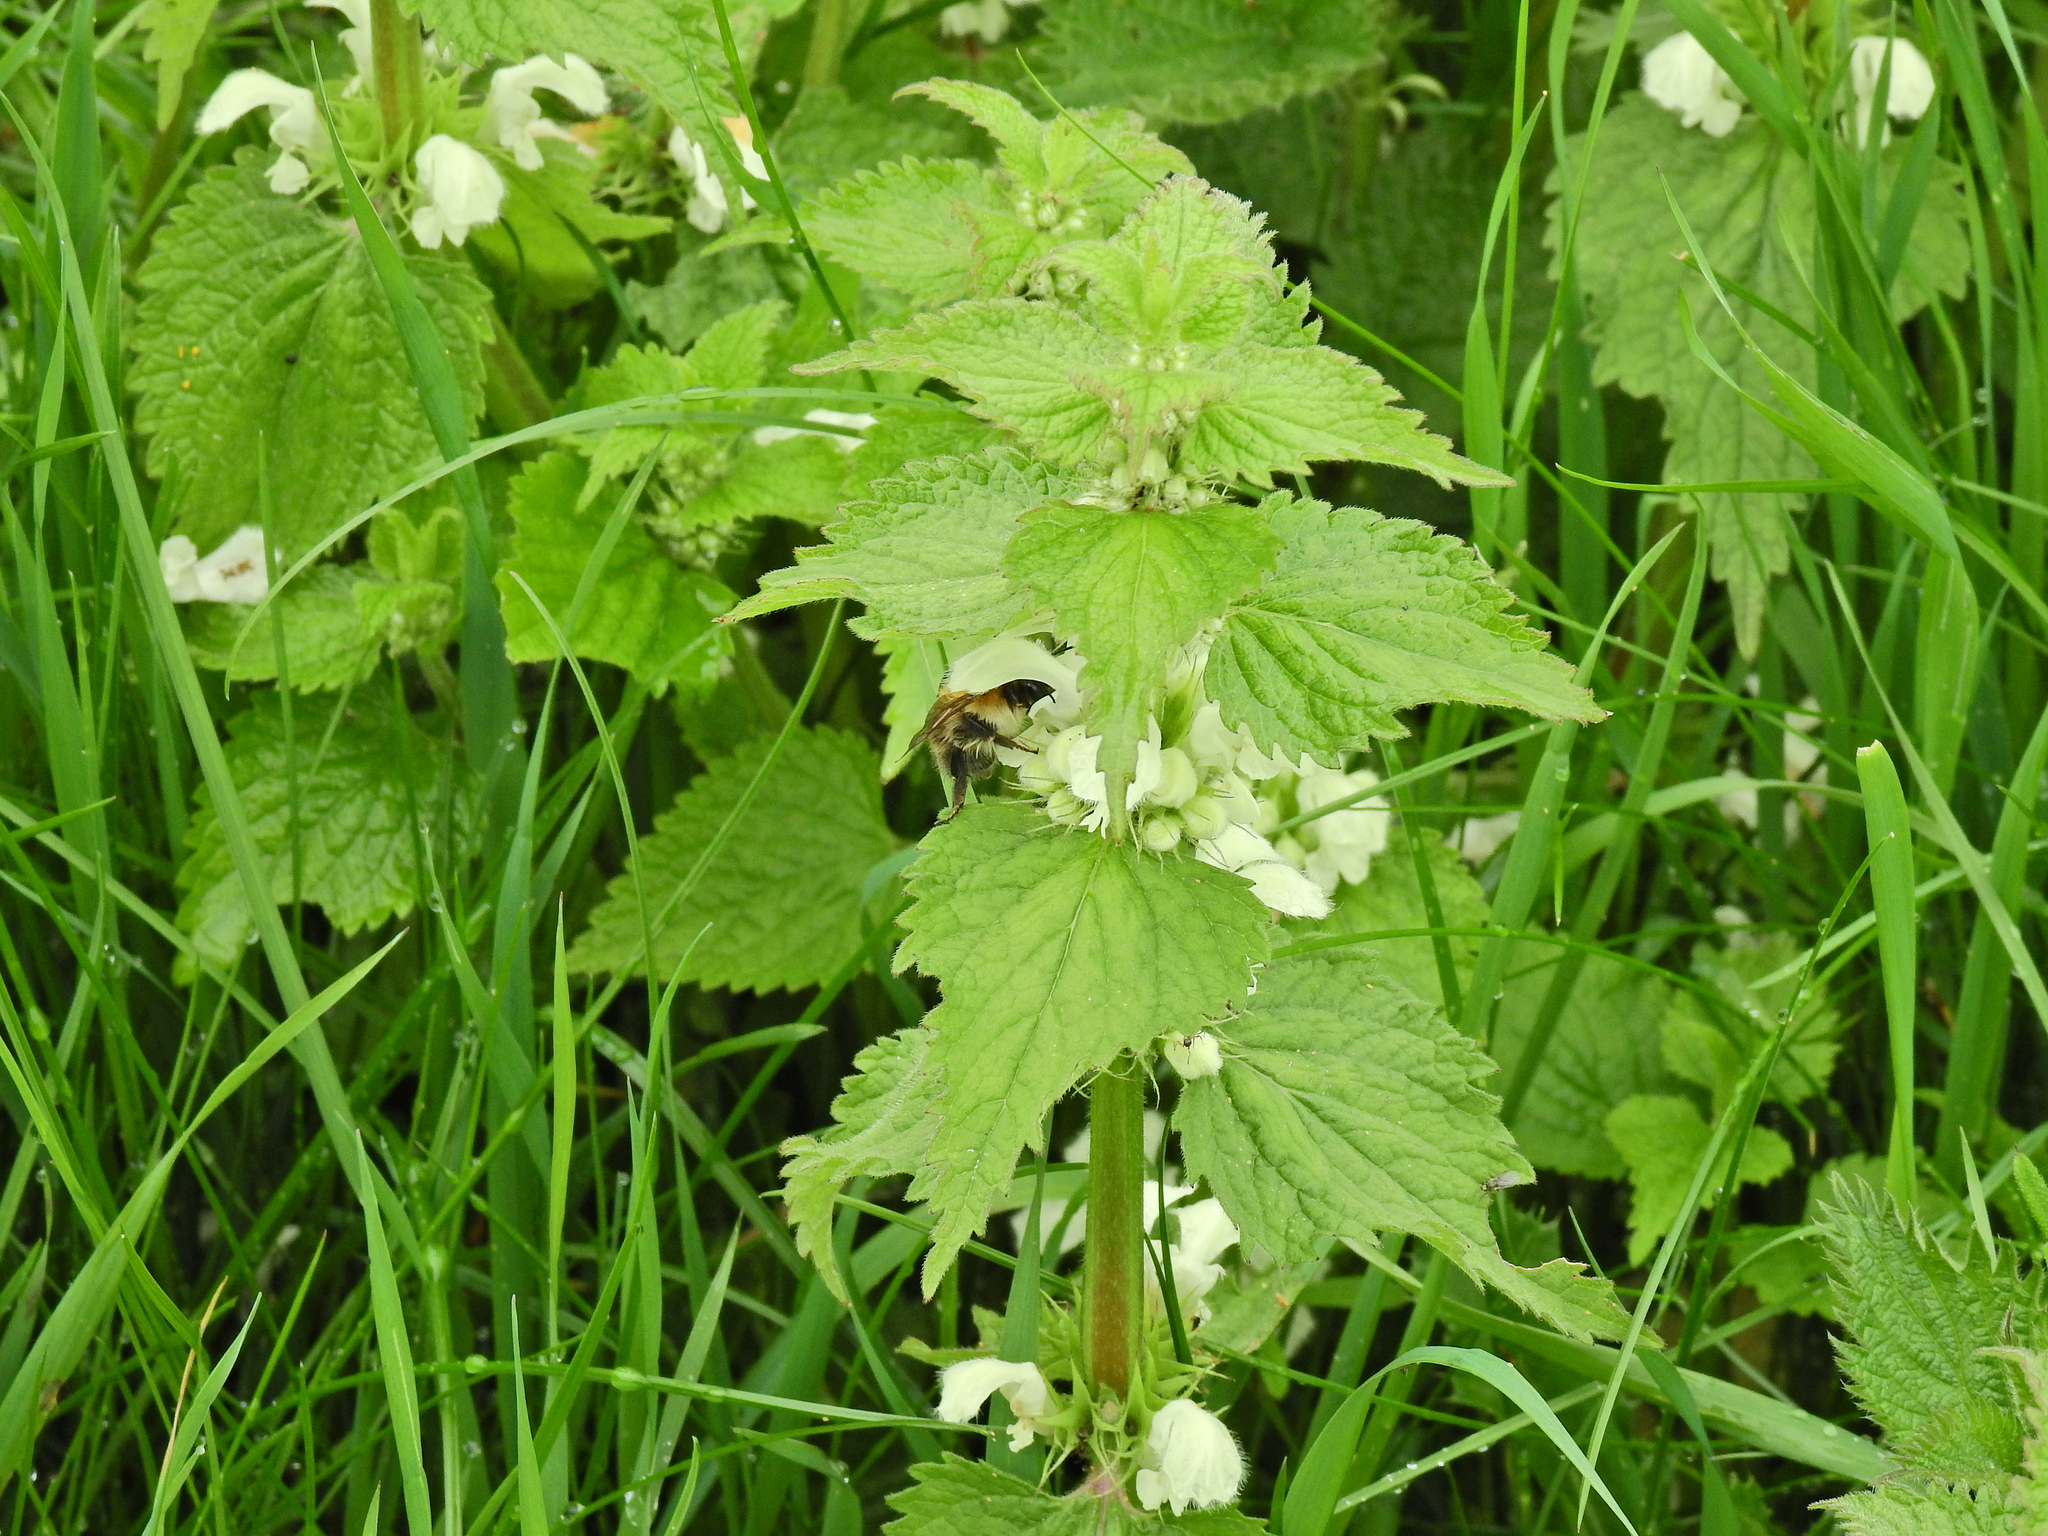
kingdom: Animalia
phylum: Arthropoda
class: Insecta
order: Hymenoptera
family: Apidae
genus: Bombus
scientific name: Bombus pascuorum
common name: Common carder bee
